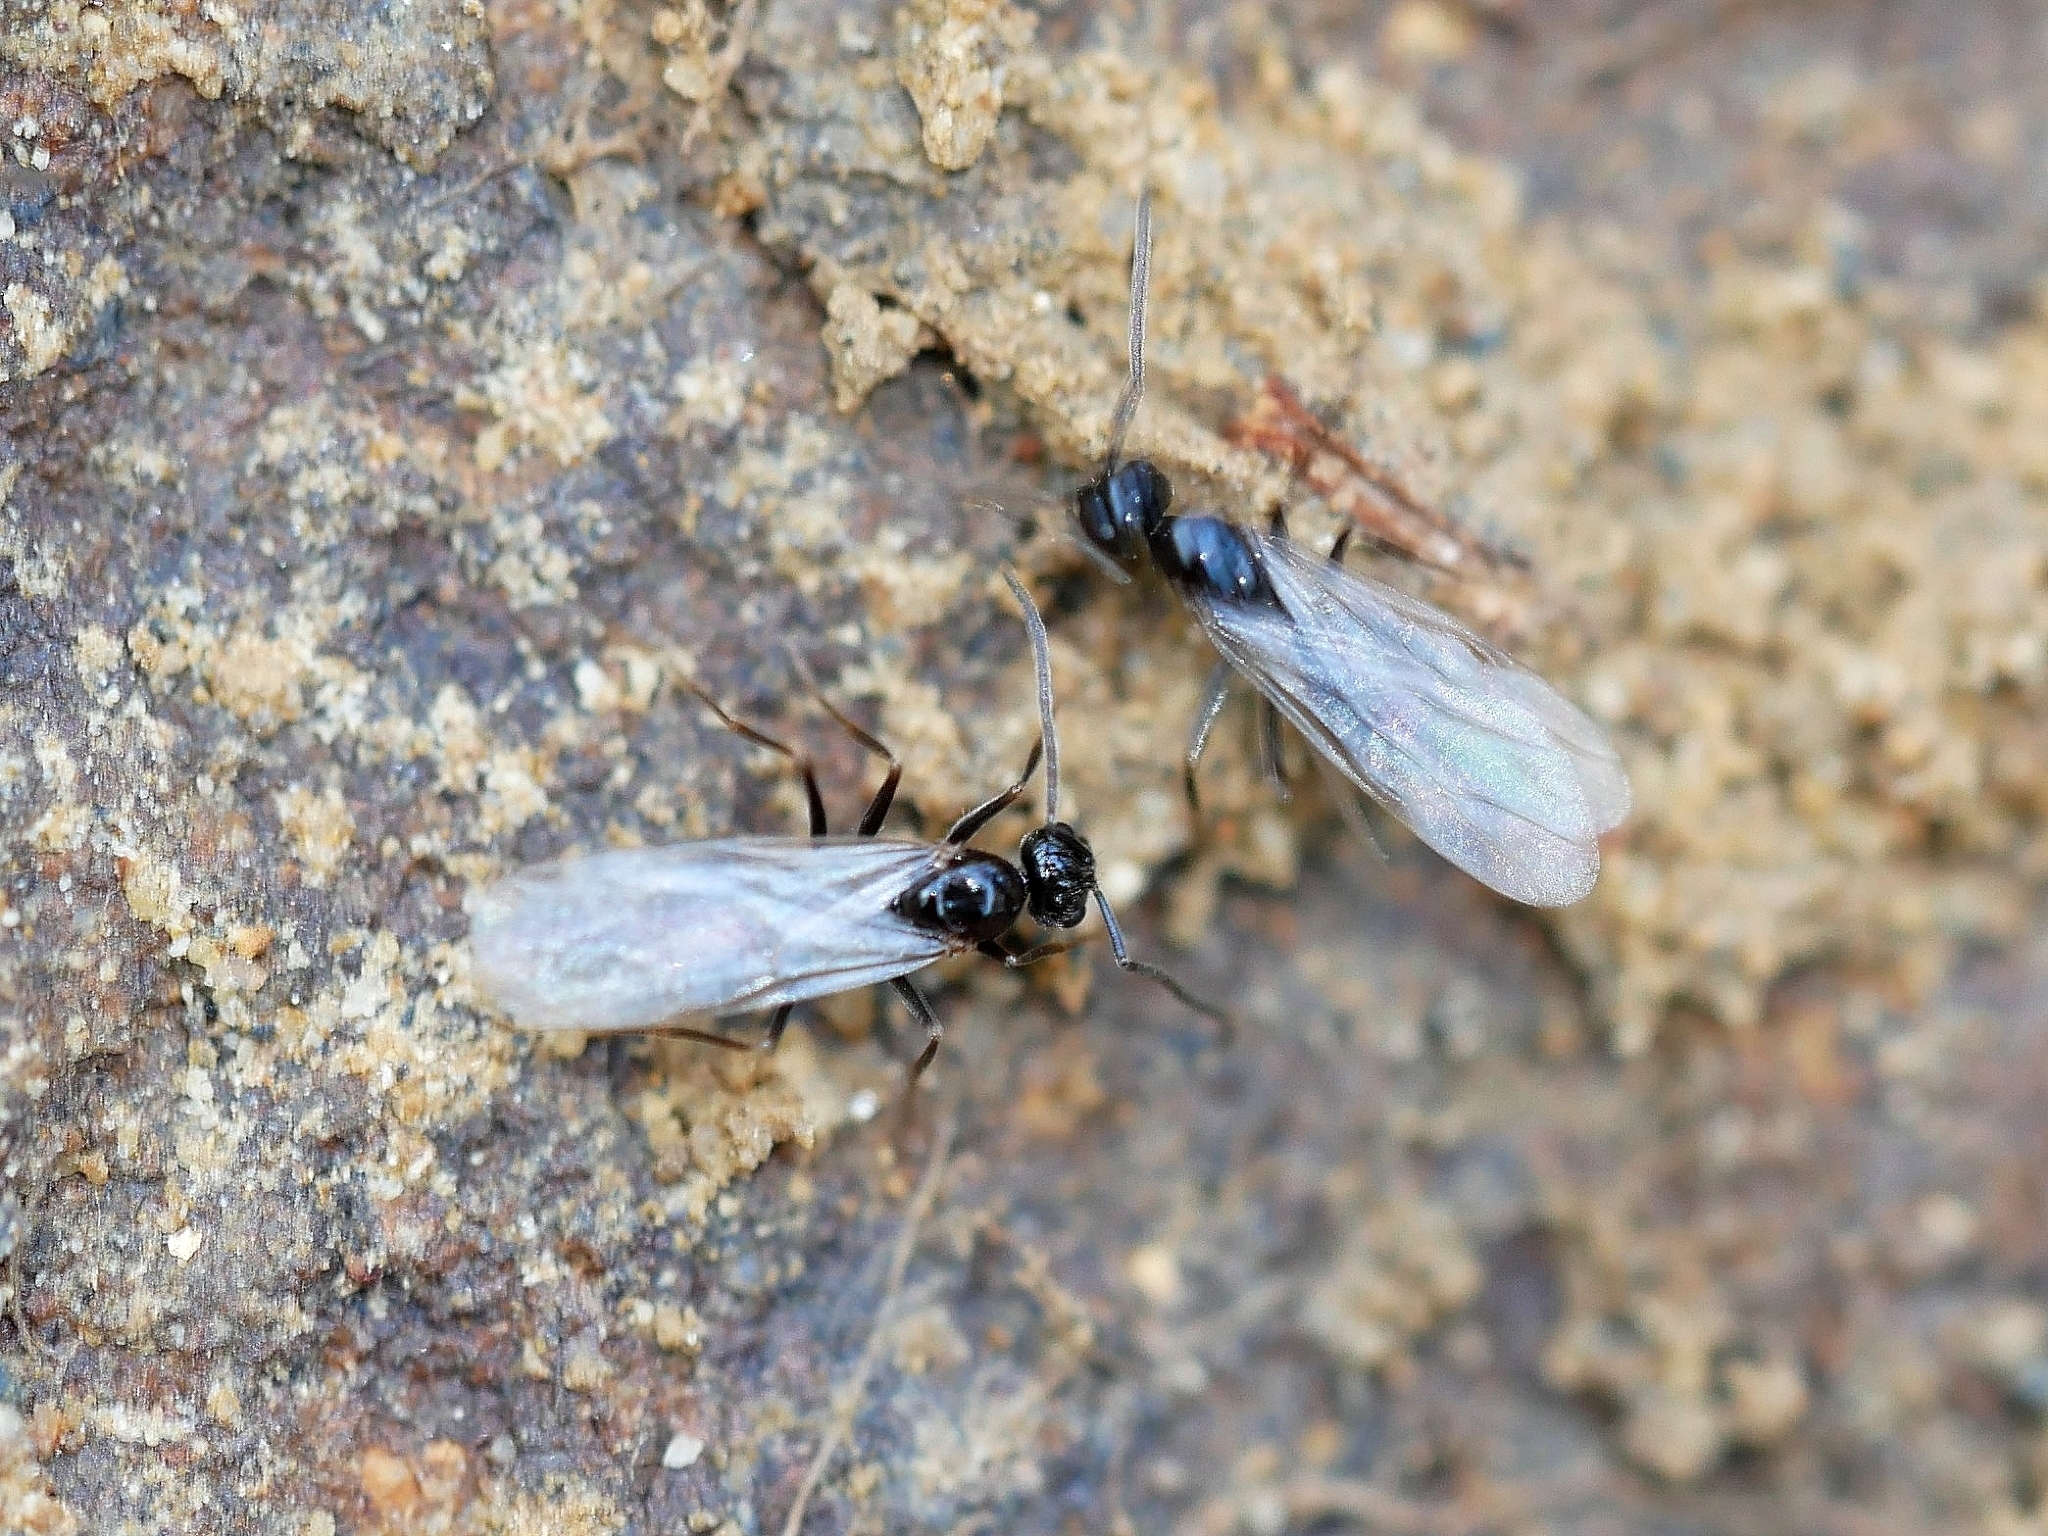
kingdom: Animalia
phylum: Arthropoda
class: Insecta
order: Hymenoptera
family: Formicidae
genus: Prenolepis
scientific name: Prenolepis imparis
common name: Small honey ant
